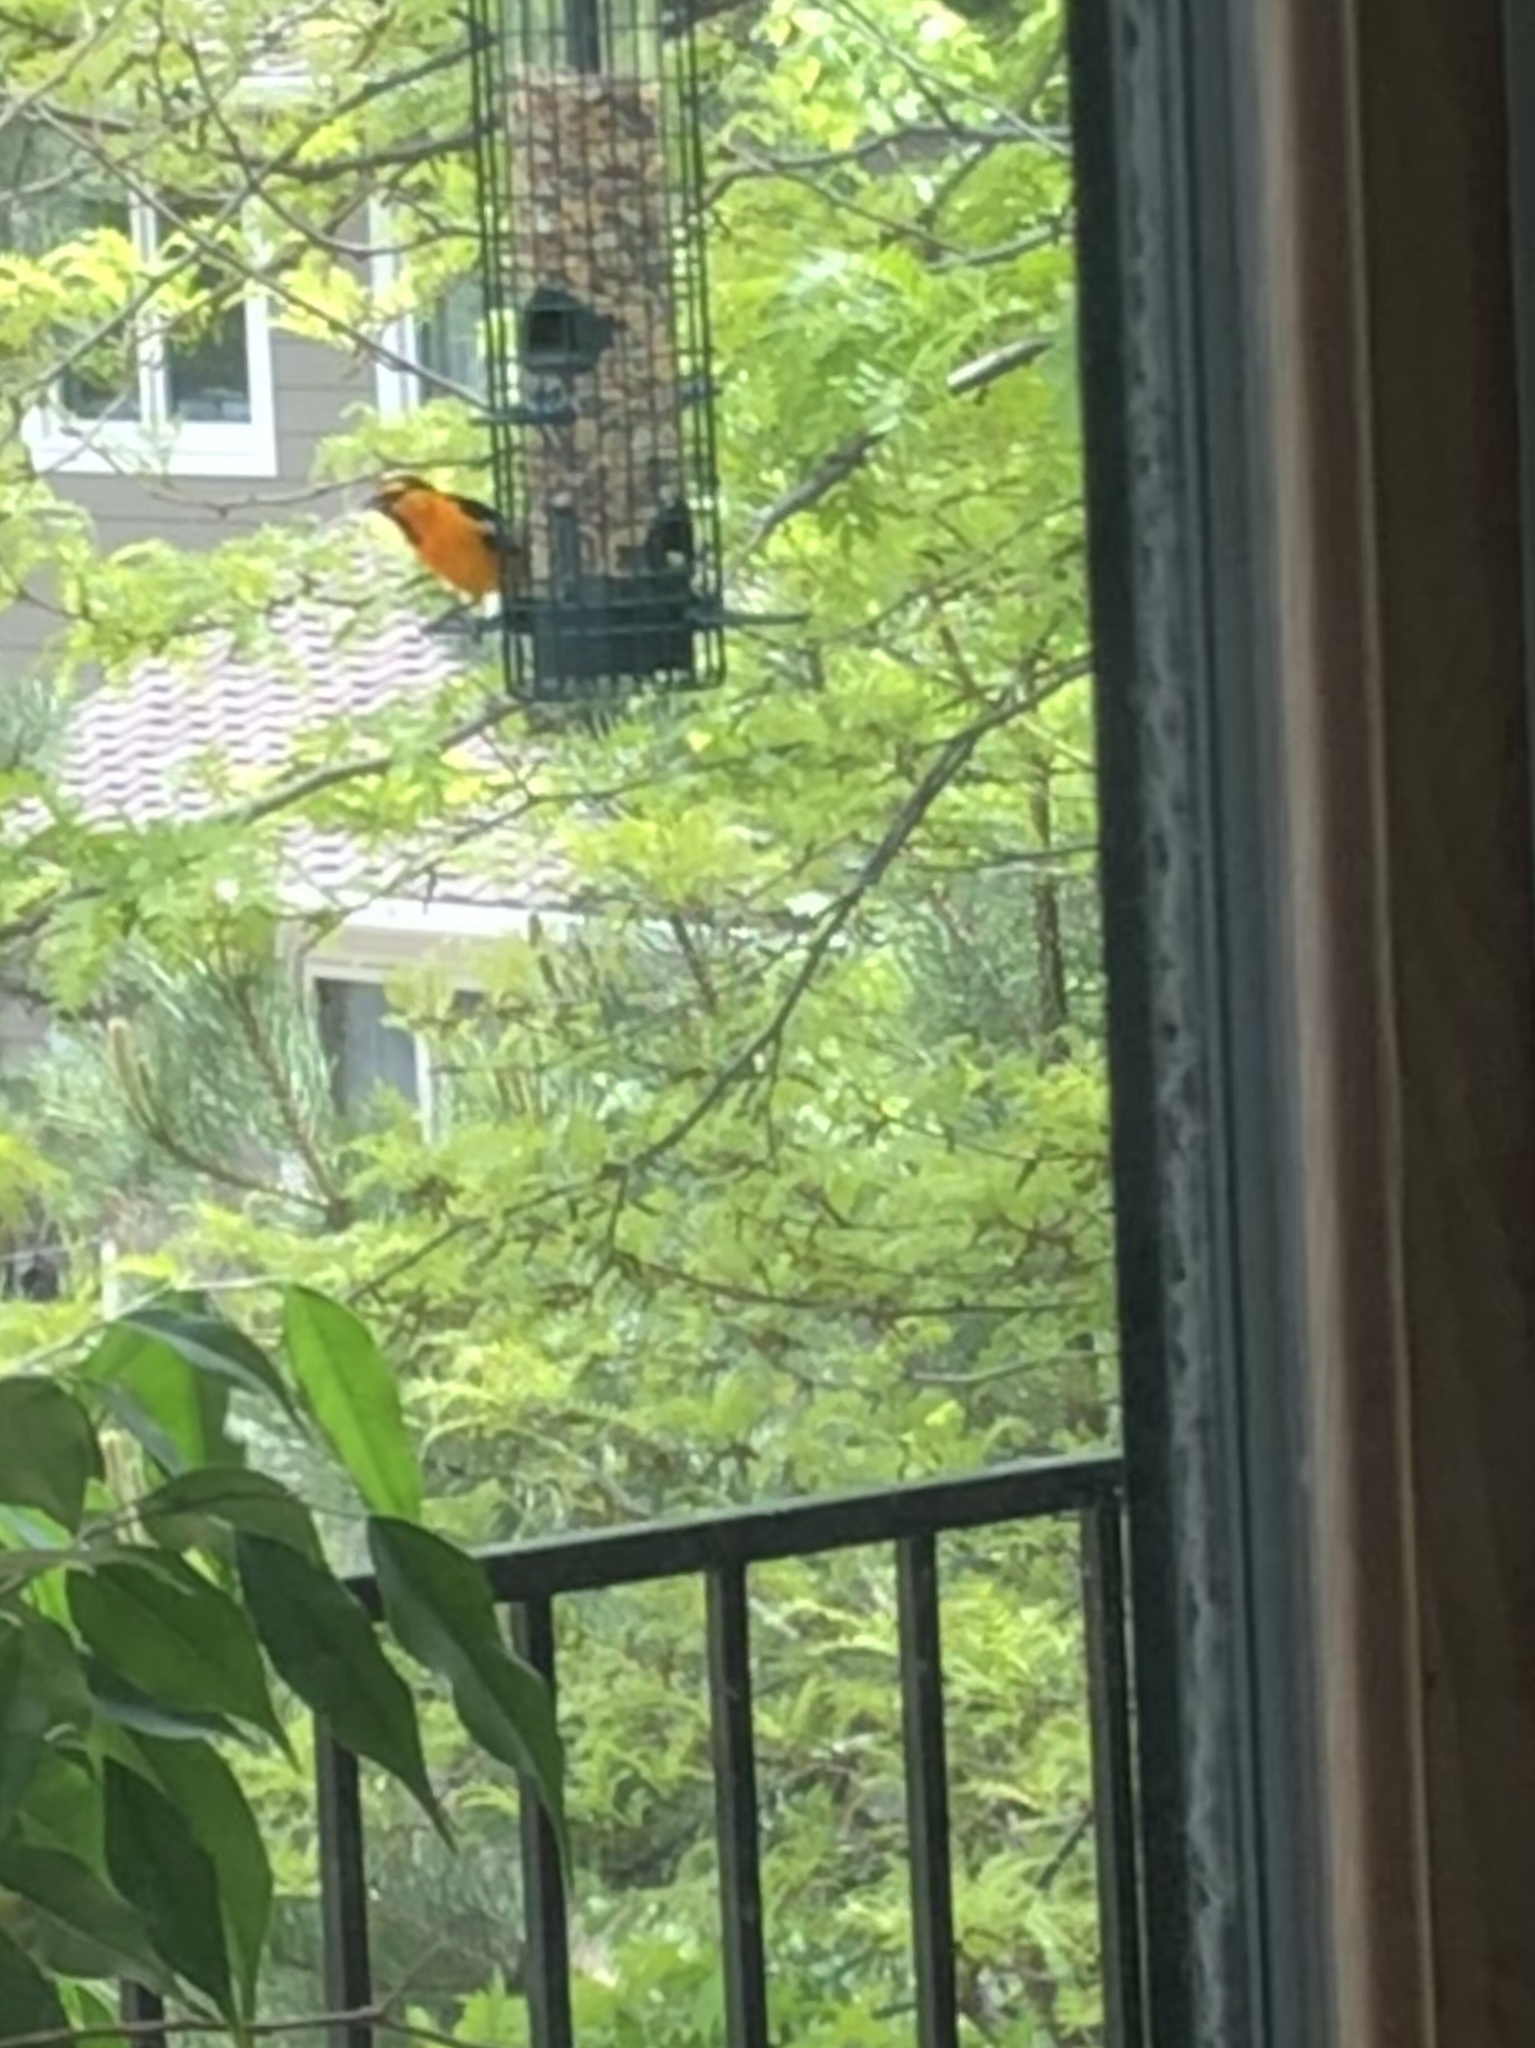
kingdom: Animalia
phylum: Chordata
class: Aves
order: Passeriformes
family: Icteridae
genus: Icterus
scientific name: Icterus bullockii
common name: Bullock's oriole
